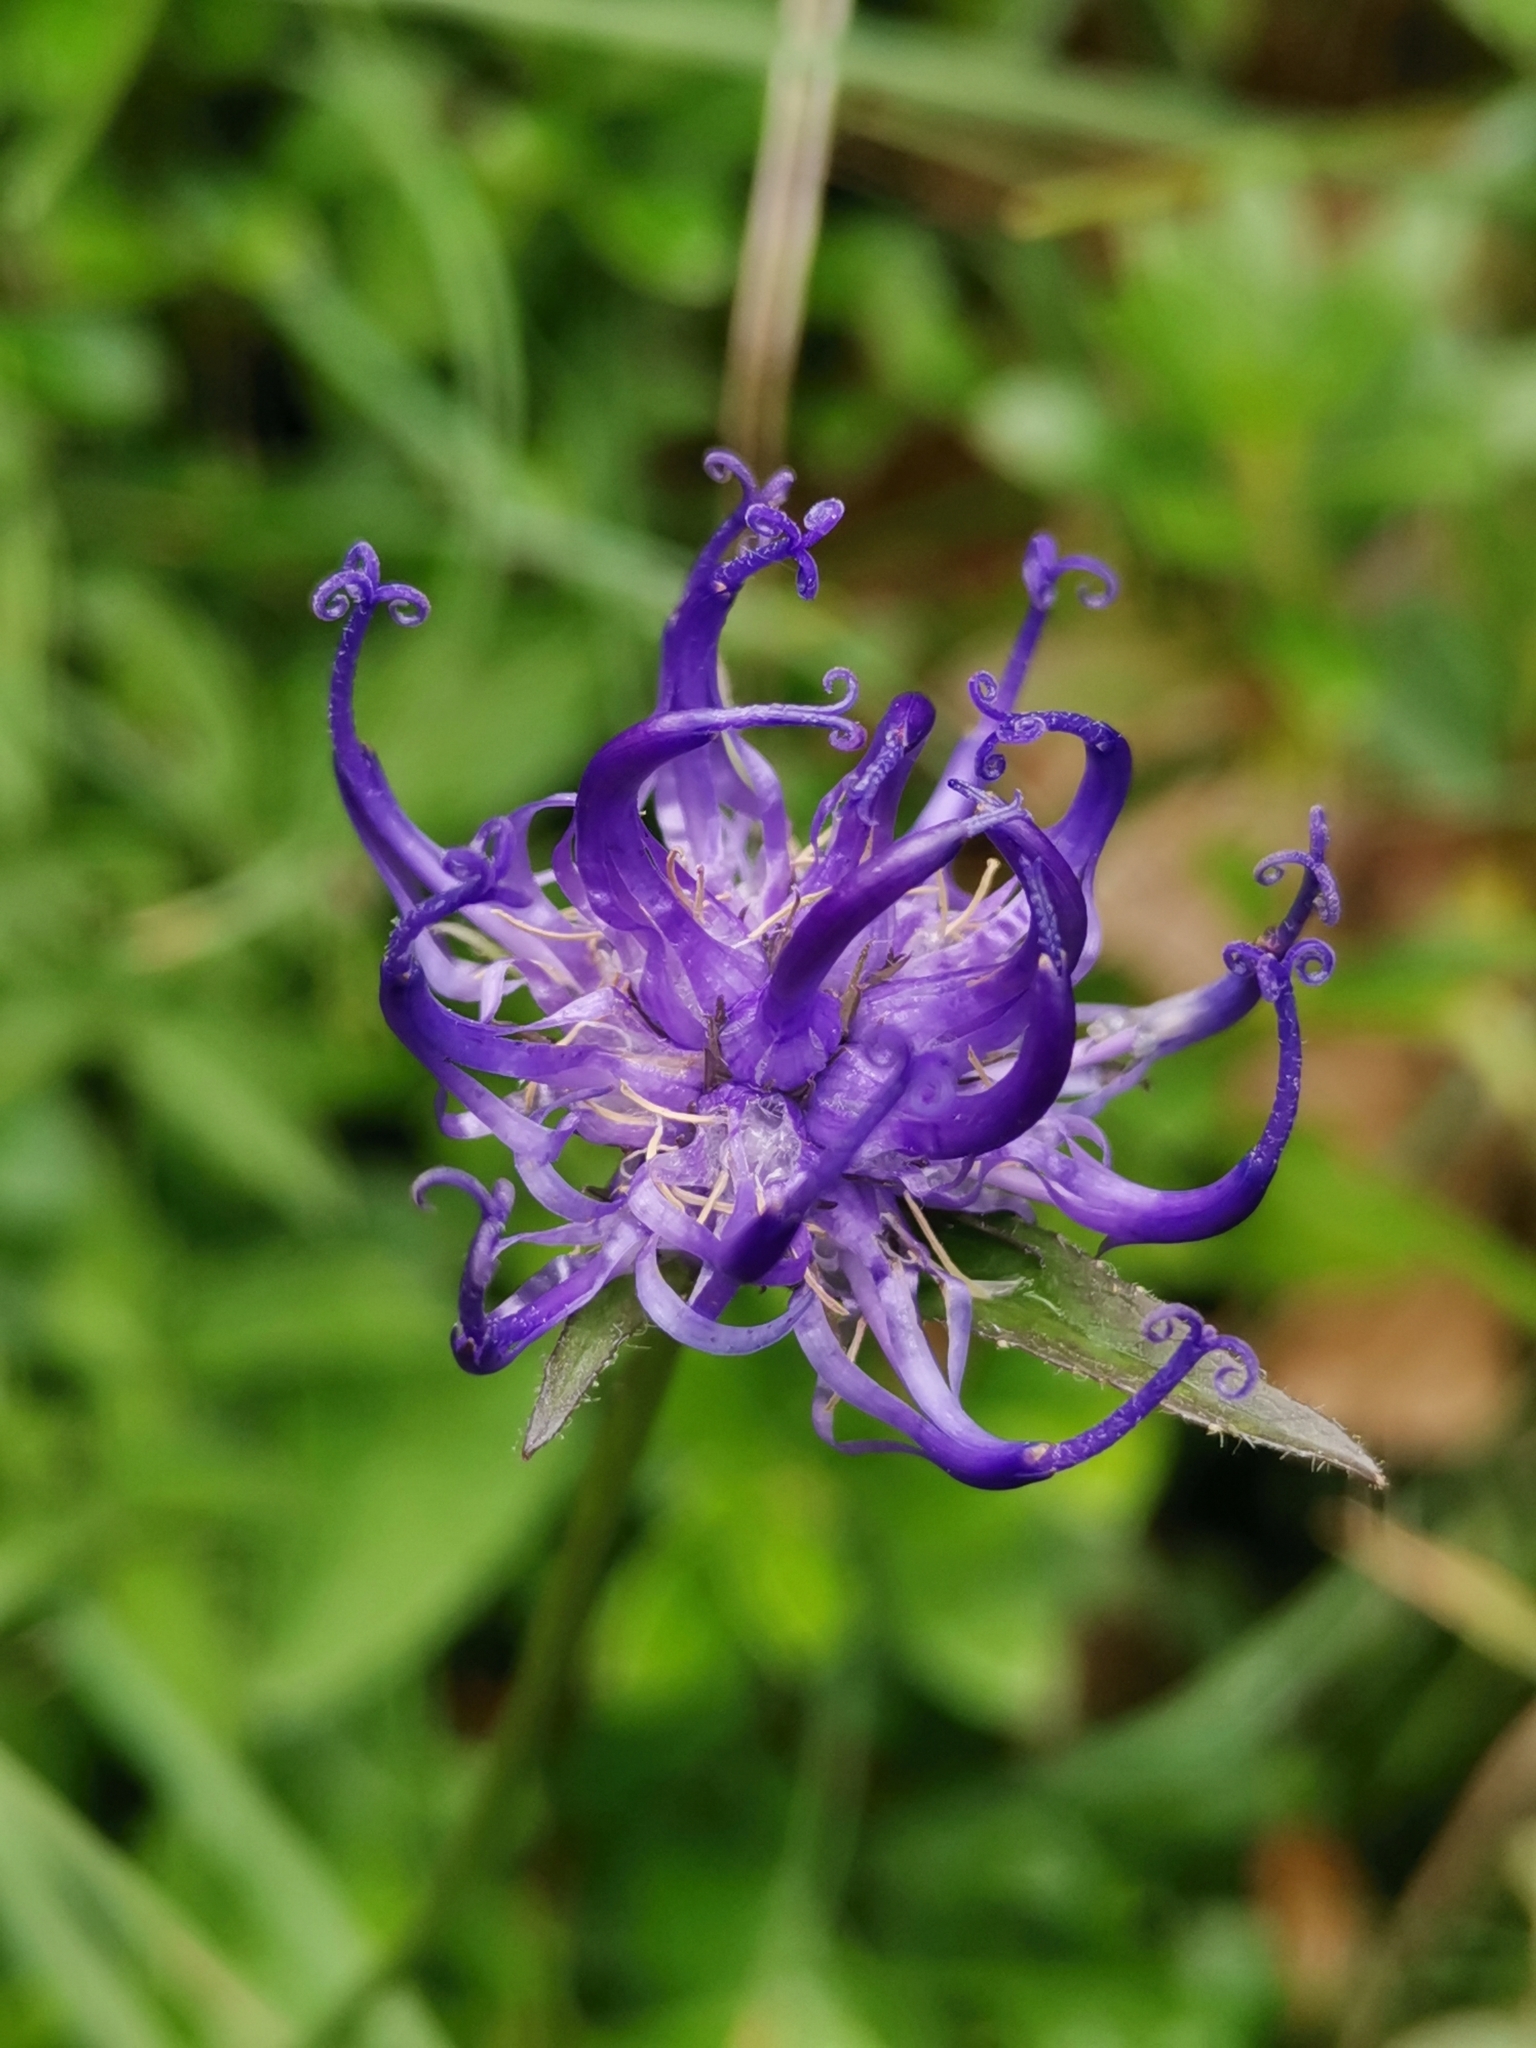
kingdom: Plantae
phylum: Tracheophyta
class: Magnoliopsida
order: Asterales
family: Campanulaceae
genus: Phyteuma
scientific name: Phyteuma orbiculare
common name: Round-headed rampion
